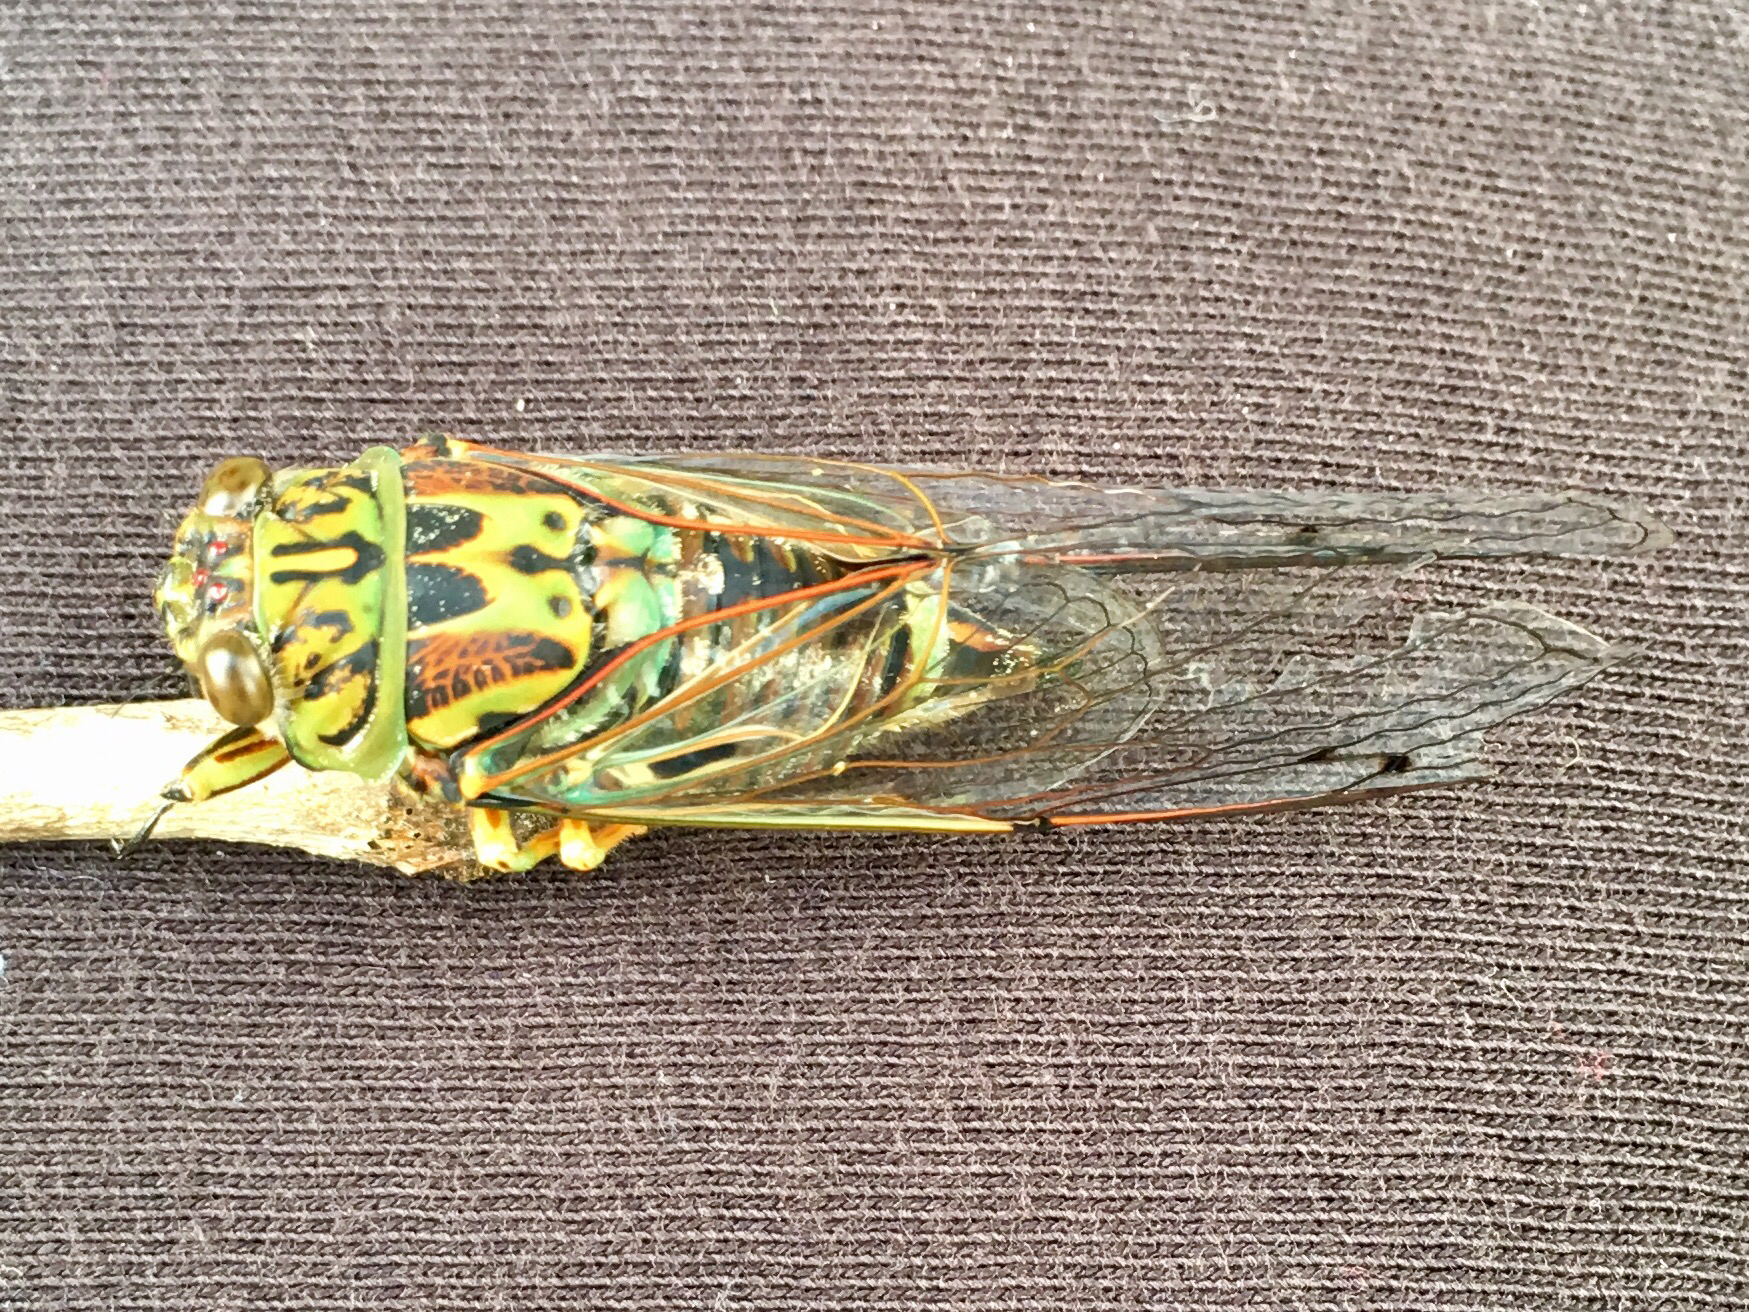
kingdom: Animalia
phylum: Arthropoda
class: Insecta
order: Hemiptera
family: Cicadidae
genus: Amphipsalta
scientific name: Amphipsalta zelandica
